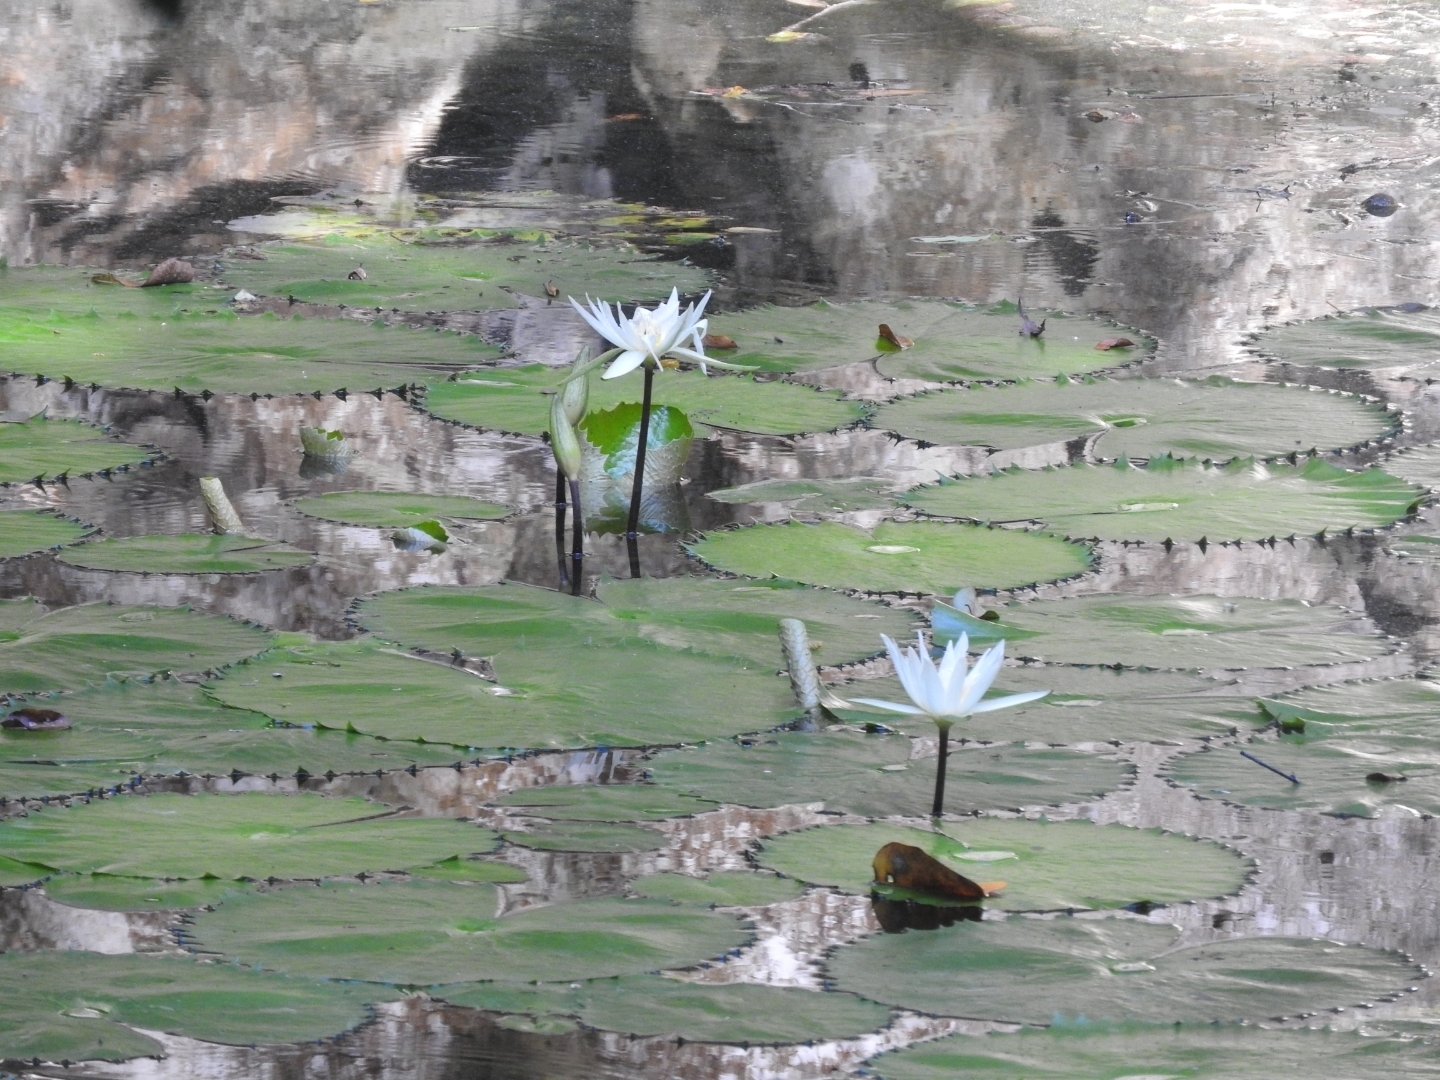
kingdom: Plantae
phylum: Tracheophyta
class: Magnoliopsida
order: Nymphaeales
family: Nymphaeaceae
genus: Nymphaea
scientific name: Nymphaea ampla
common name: Dotleaf waterlily
